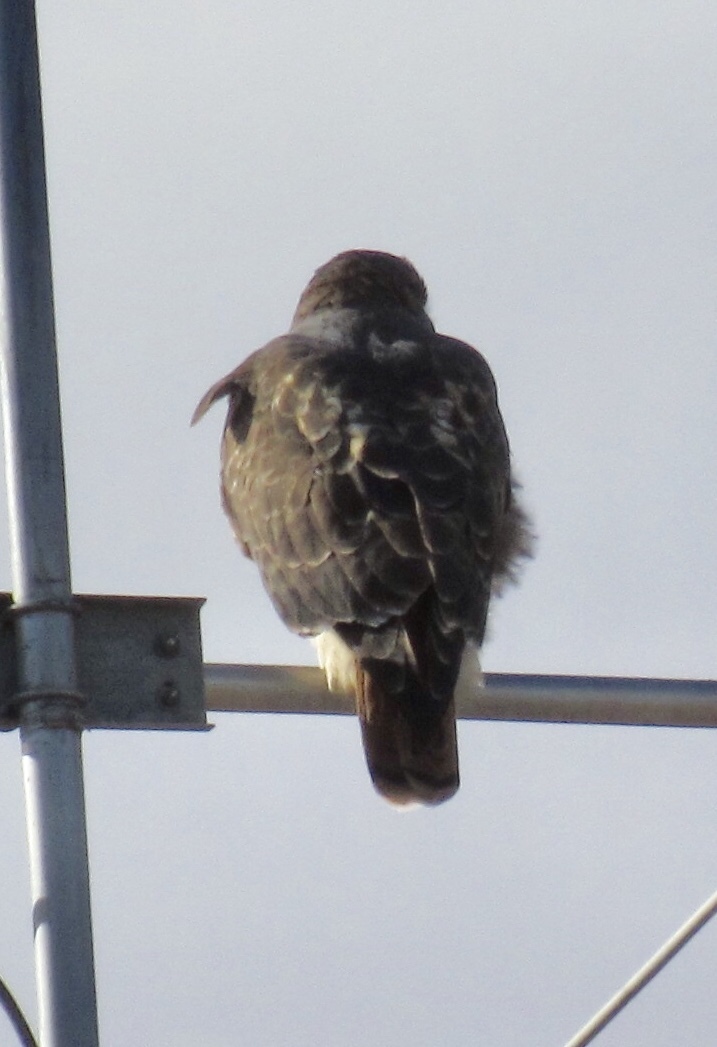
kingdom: Animalia
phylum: Chordata
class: Aves
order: Accipitriformes
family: Accipitridae
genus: Buteo
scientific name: Buteo jamaicensis
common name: Red-tailed hawk
